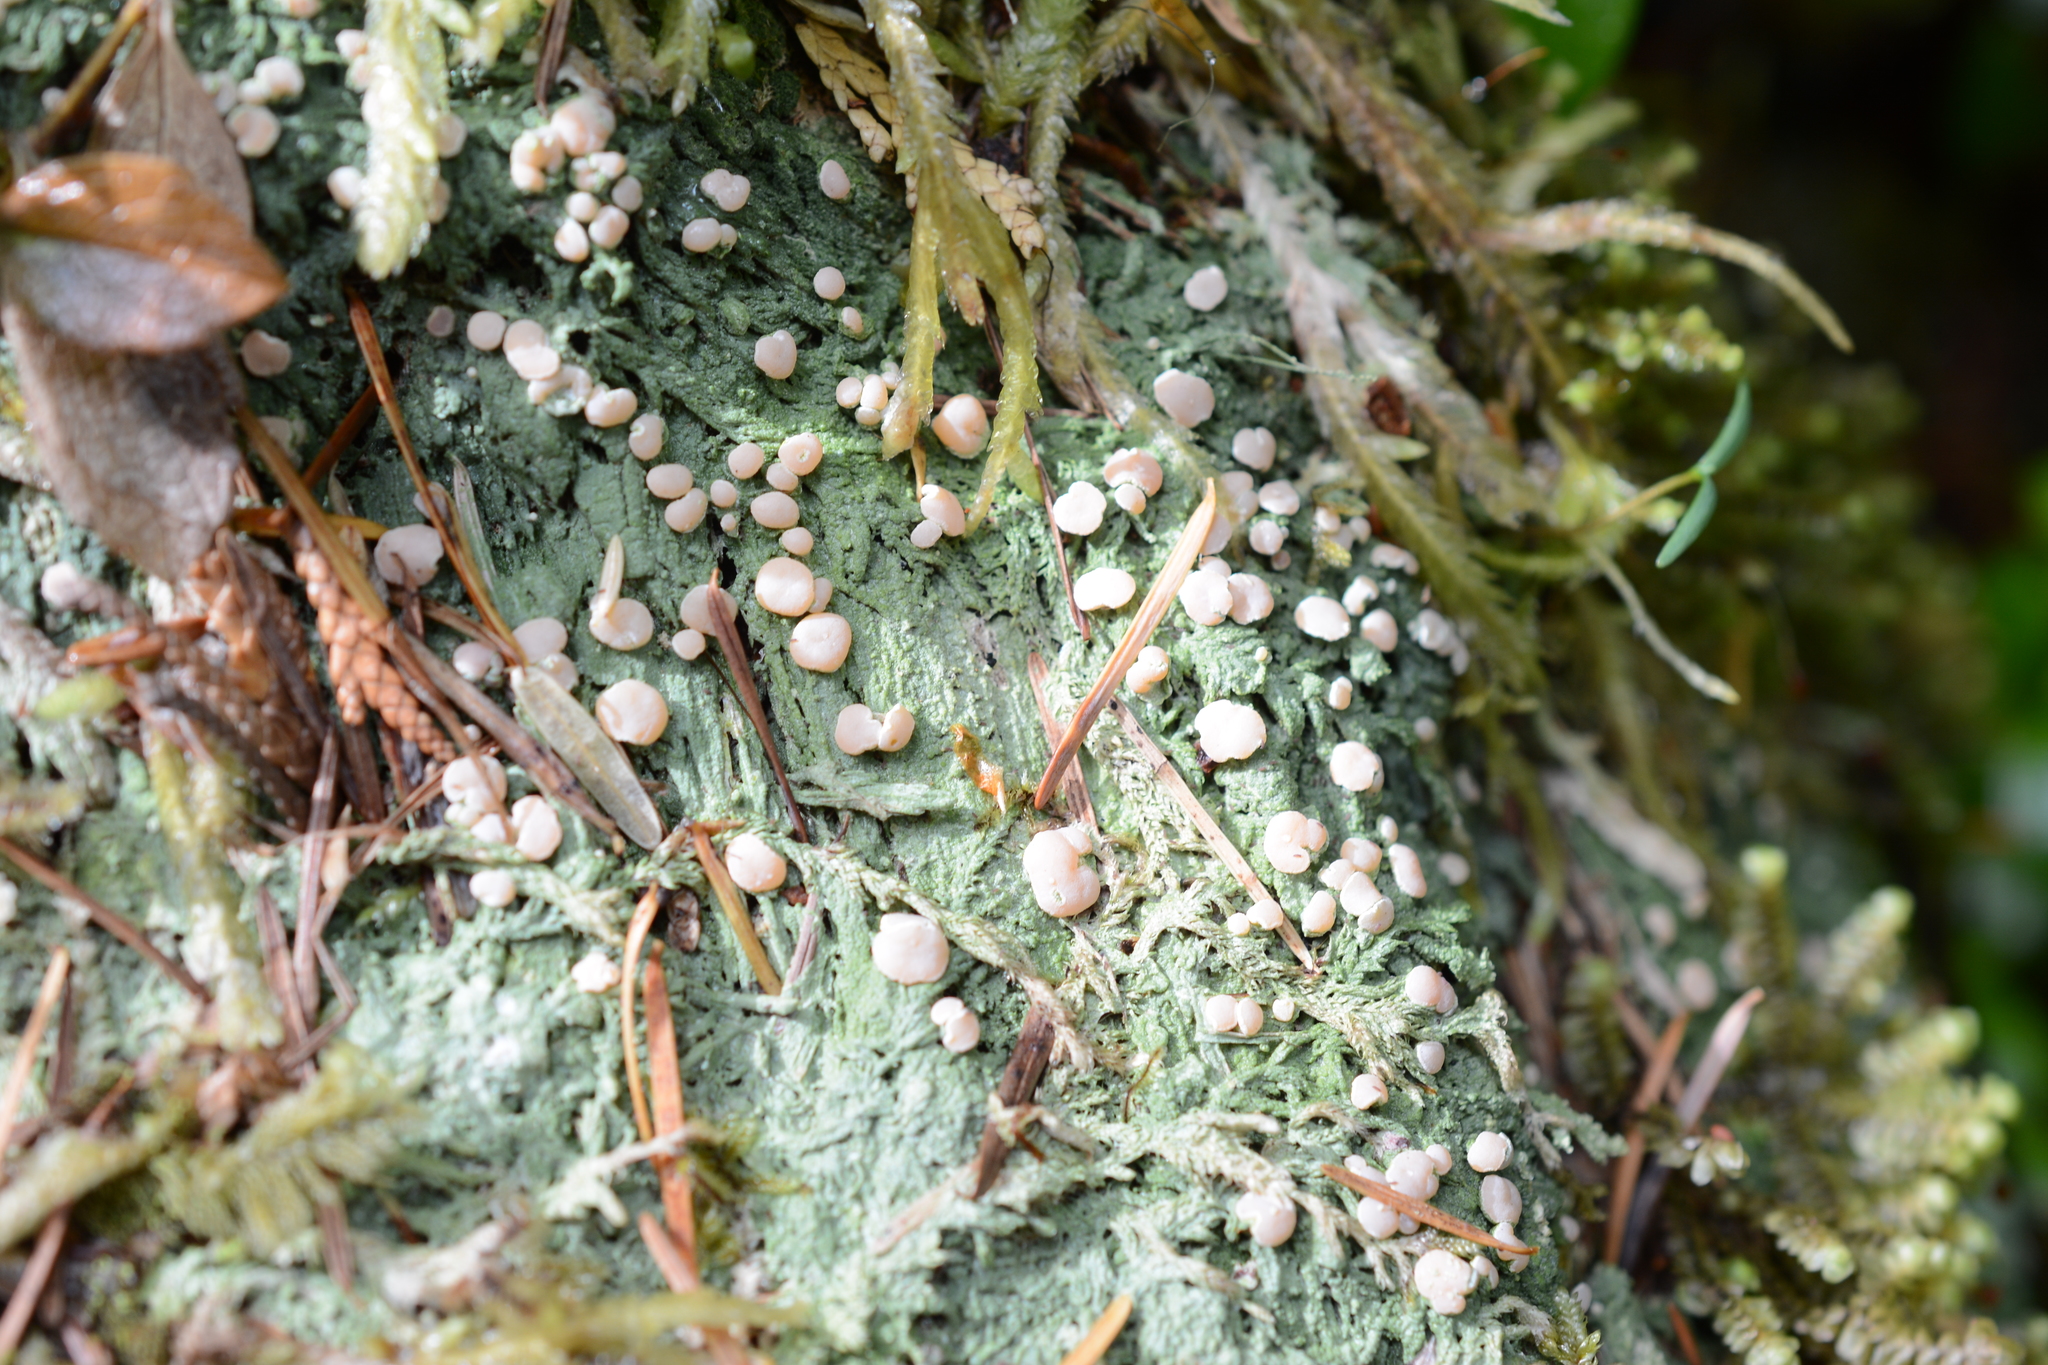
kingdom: Fungi
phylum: Ascomycota
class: Lecanoromycetes
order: Pertusariales
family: Icmadophilaceae
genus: Icmadophila
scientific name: Icmadophila ericetorum
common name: Candy lichen
